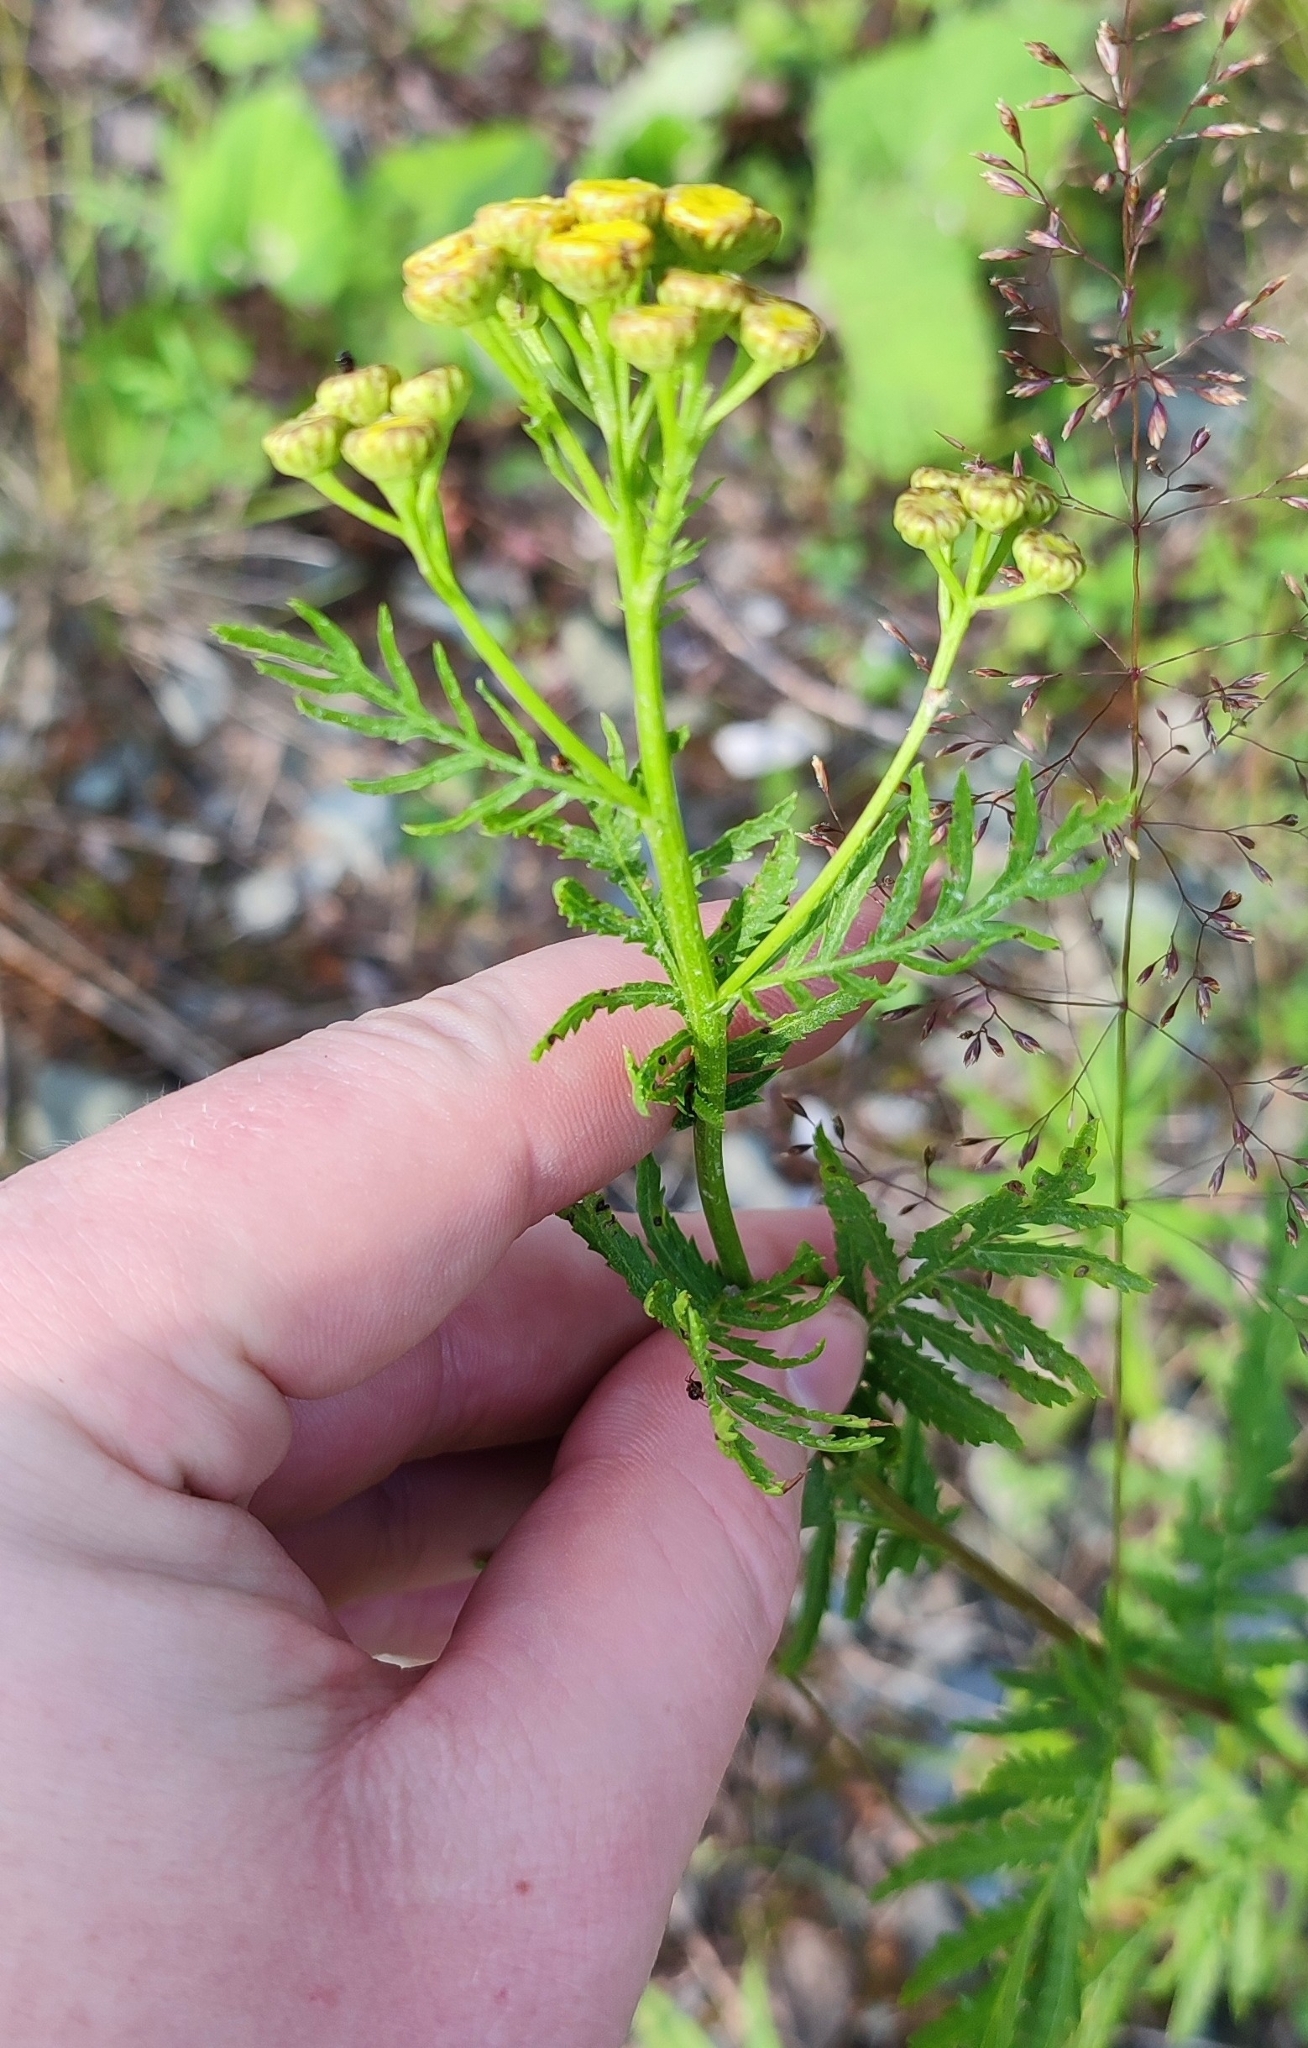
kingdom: Plantae
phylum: Tracheophyta
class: Magnoliopsida
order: Asterales
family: Asteraceae
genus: Tanacetum
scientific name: Tanacetum vulgare
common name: Common tansy
